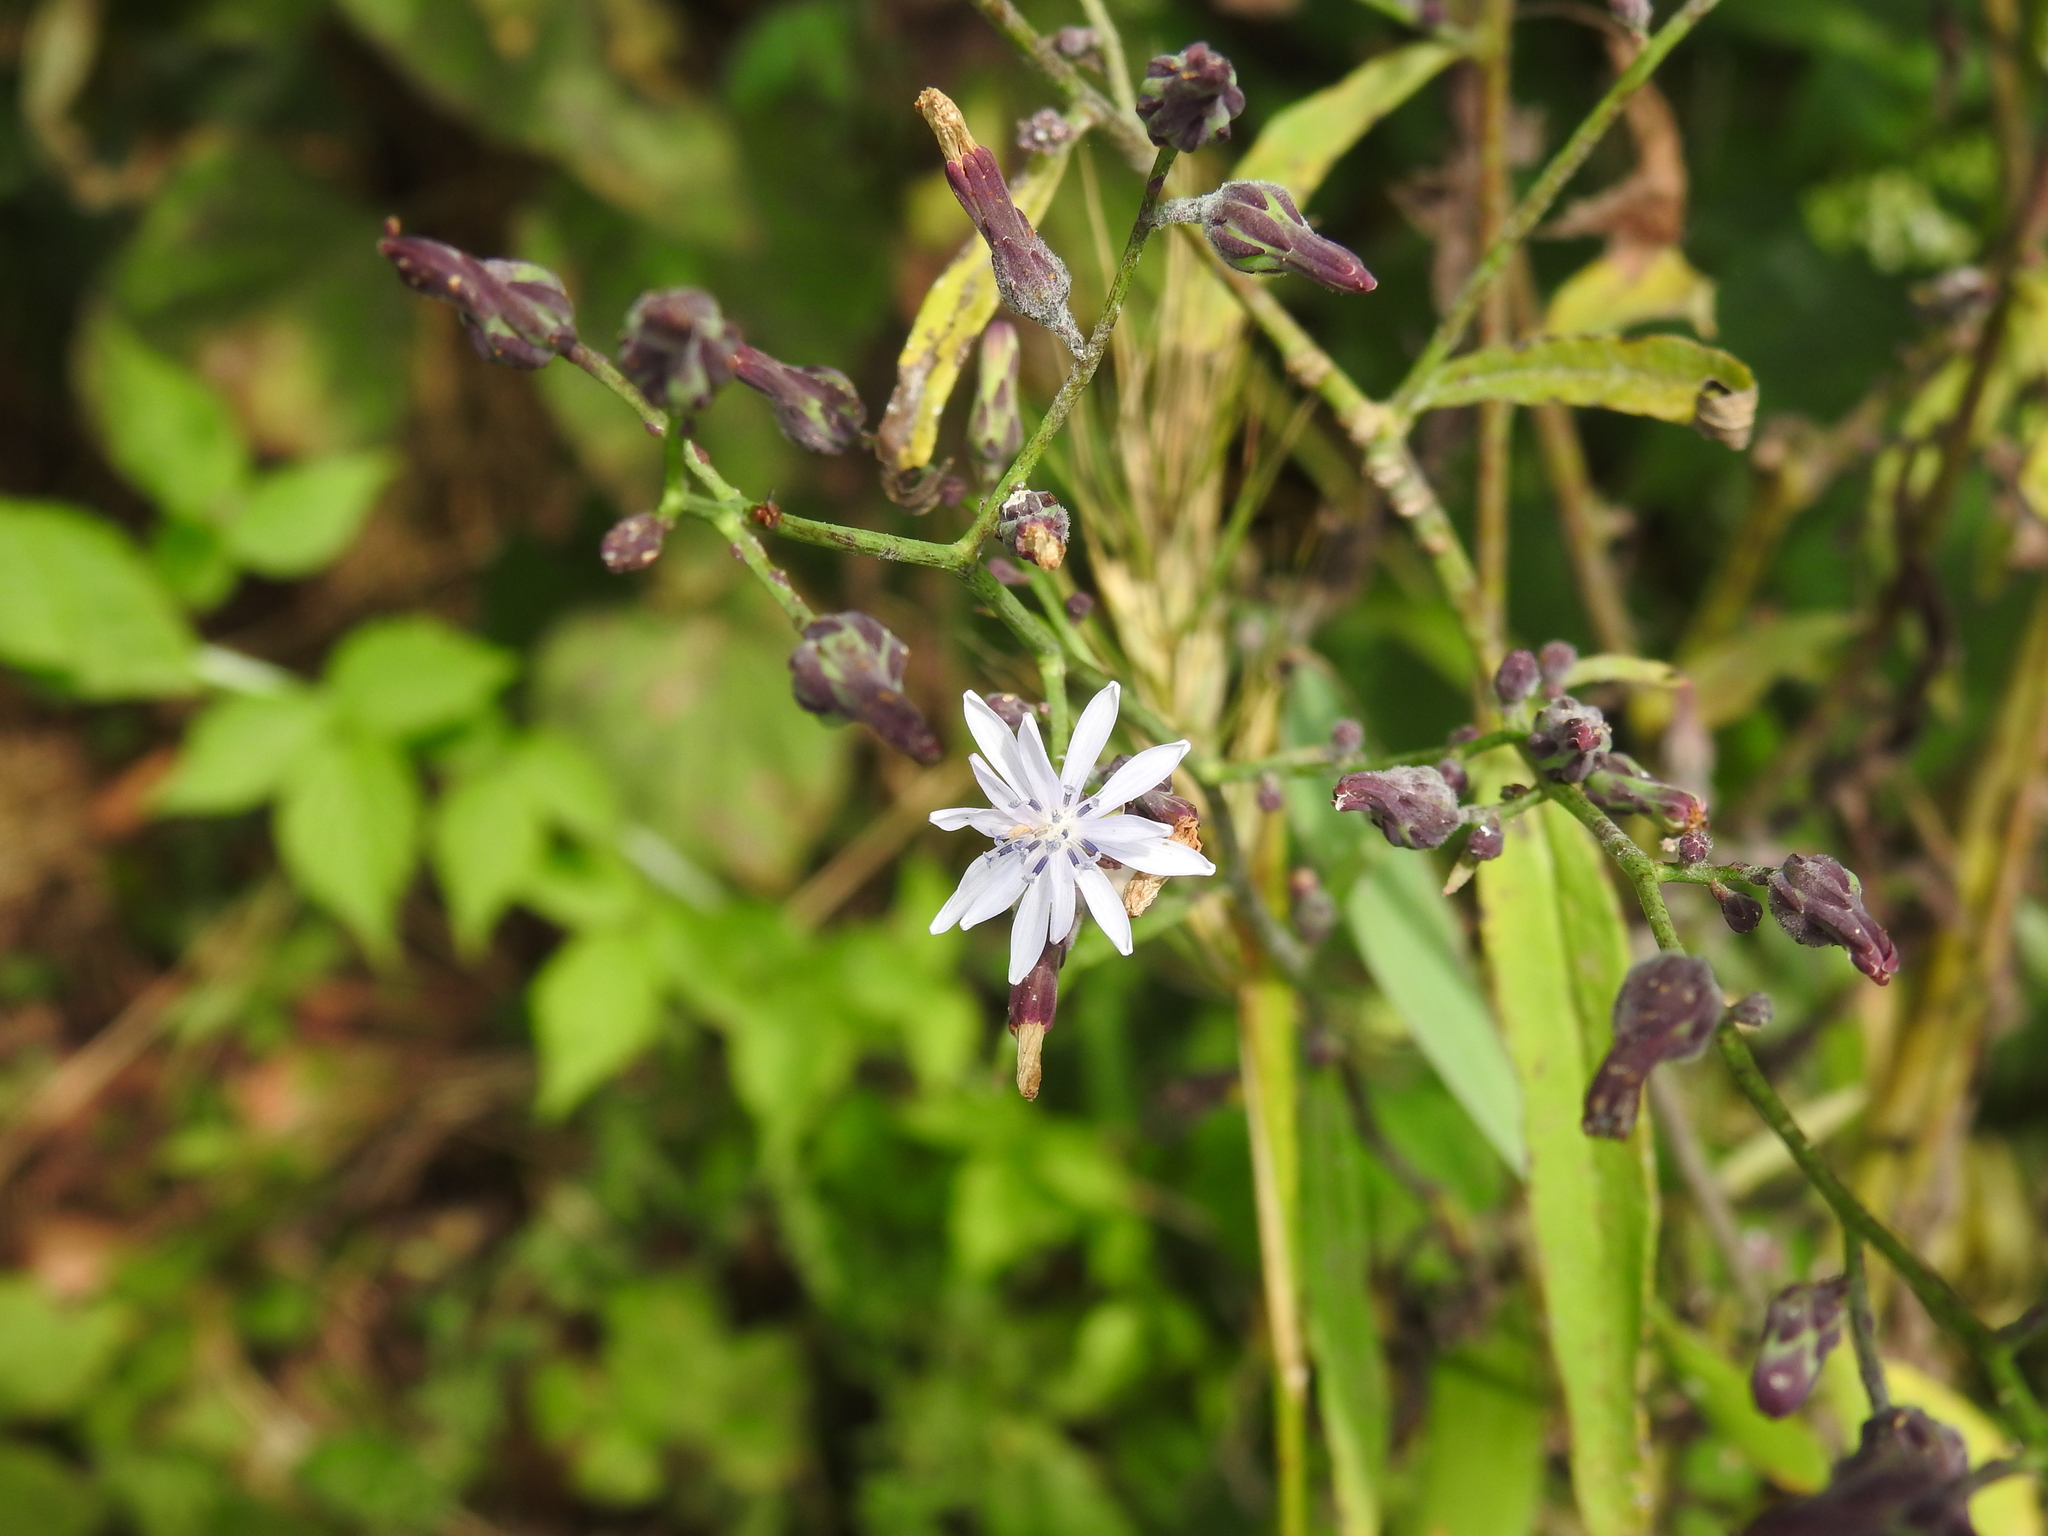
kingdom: Plantae
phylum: Tracheophyta
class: Magnoliopsida
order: Asterales
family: Asteraceae
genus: Lactuca
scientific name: Lactuca floridana
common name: Woodland lettuce
